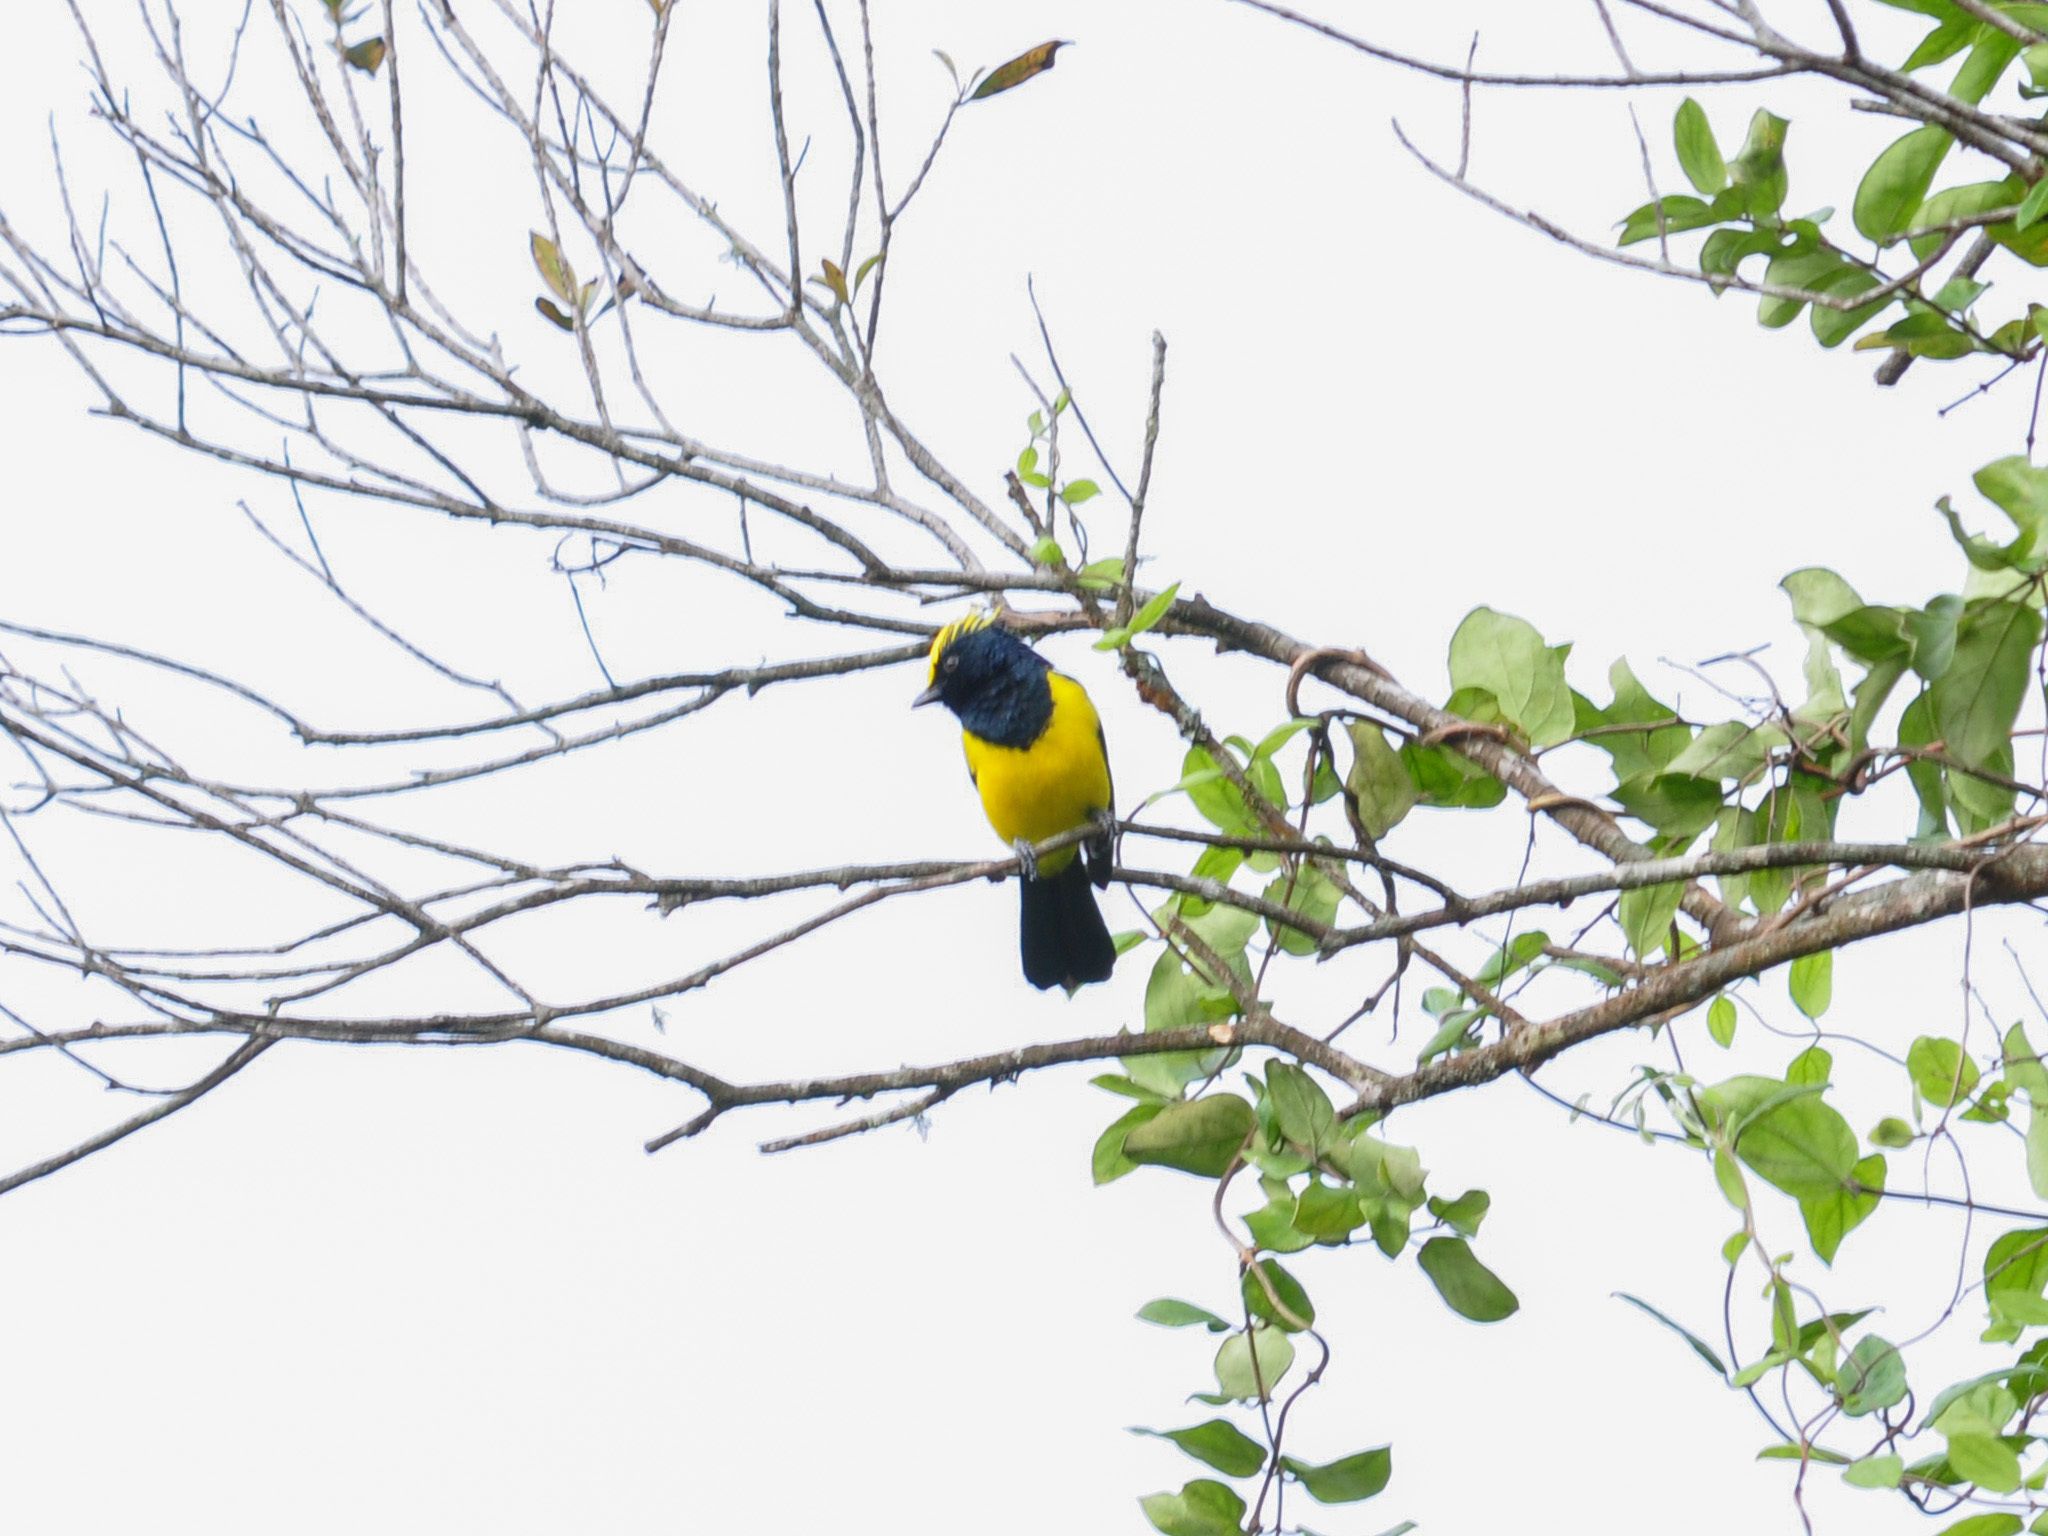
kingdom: Animalia
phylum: Chordata
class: Aves
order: Passeriformes
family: Paridae
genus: Melanochlora
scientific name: Melanochlora sultanea
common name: Sultan tit
